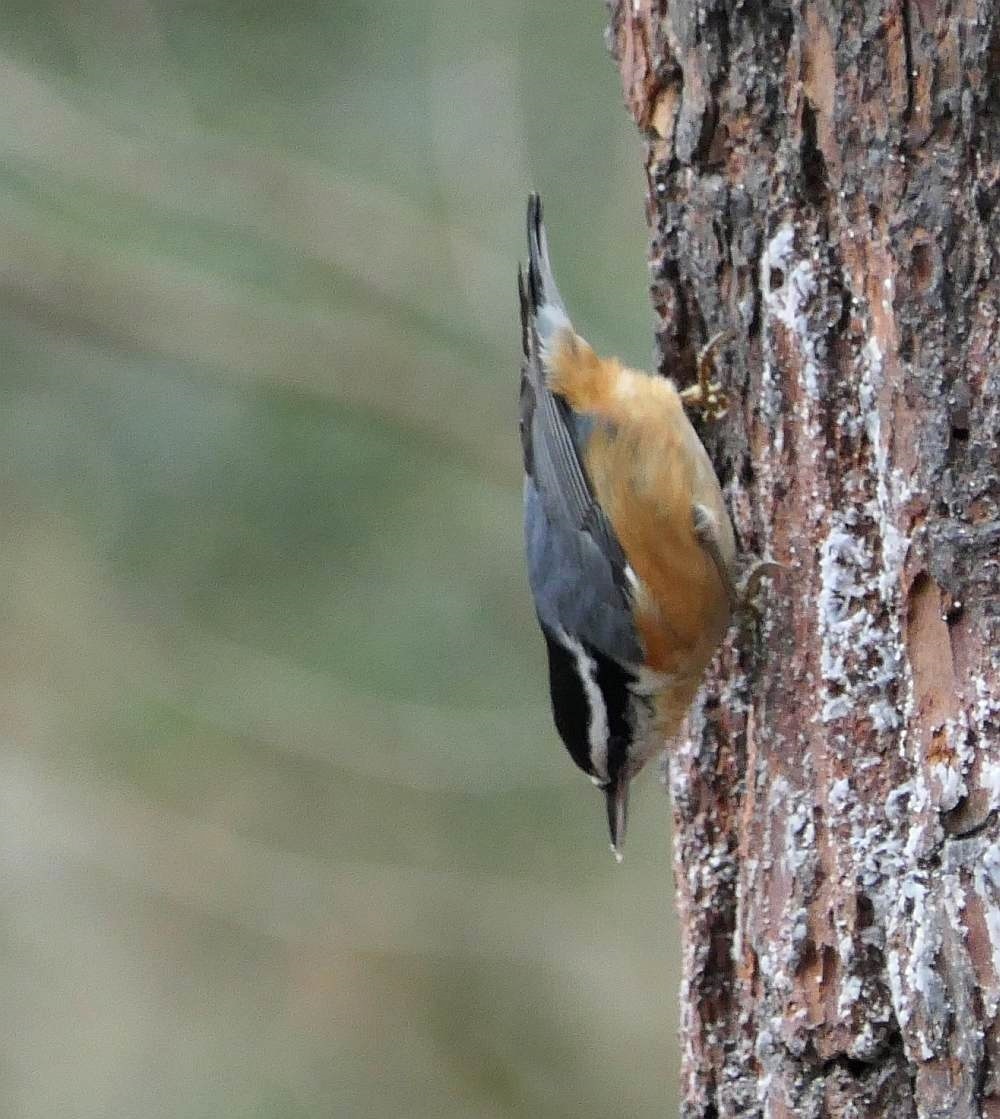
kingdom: Animalia
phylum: Chordata
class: Aves
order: Passeriformes
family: Sittidae
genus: Sitta
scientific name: Sitta canadensis
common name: Red-breasted nuthatch
